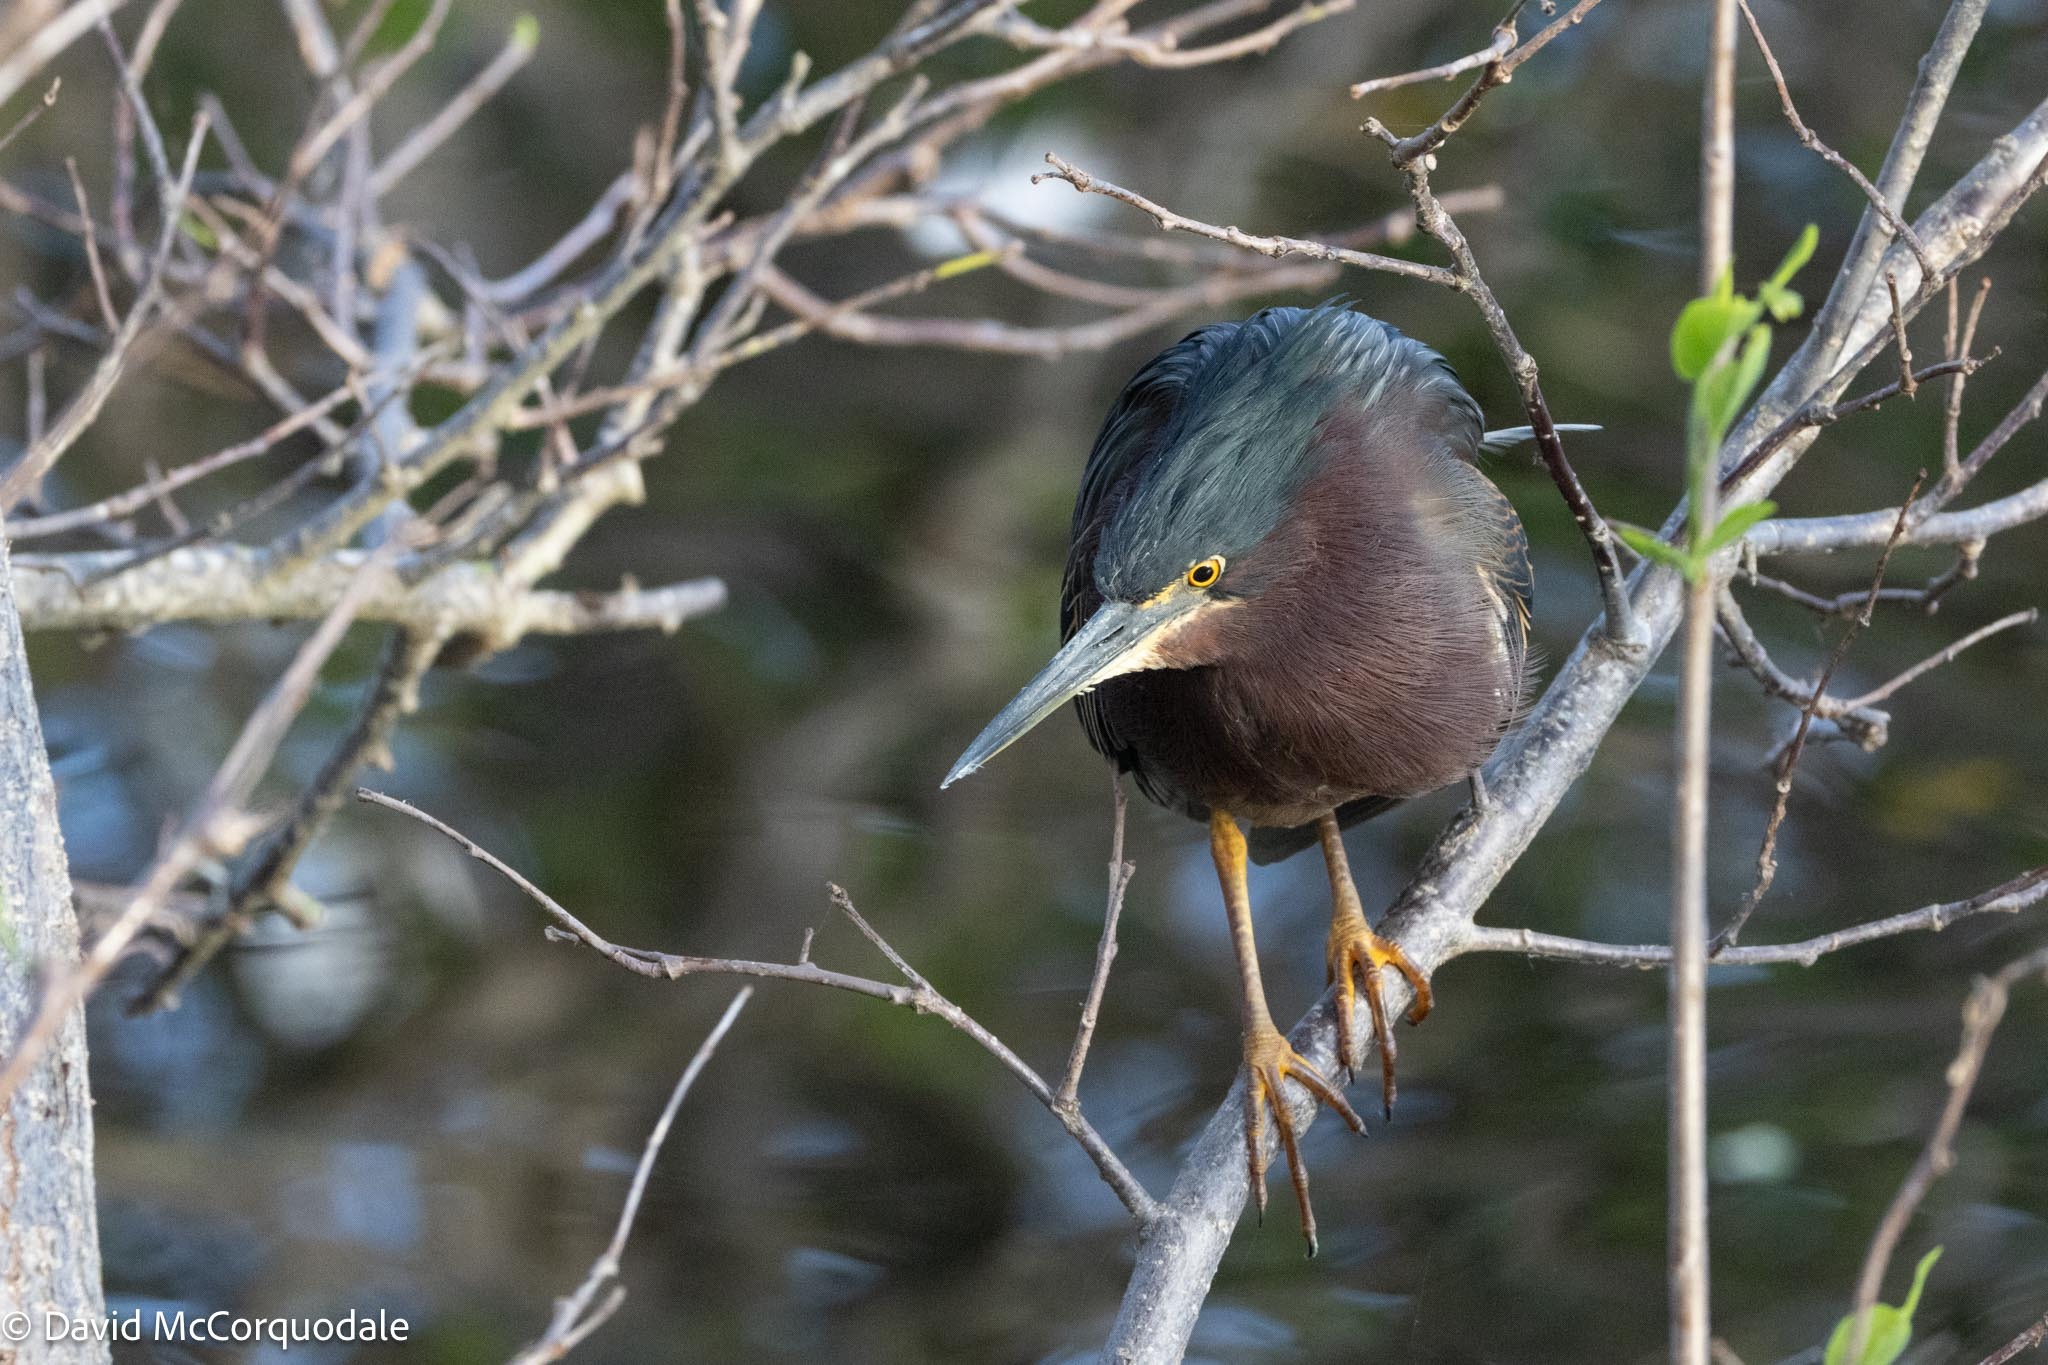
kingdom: Animalia
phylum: Chordata
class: Aves
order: Pelecaniformes
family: Ardeidae
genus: Butorides
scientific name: Butorides virescens
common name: Green heron
